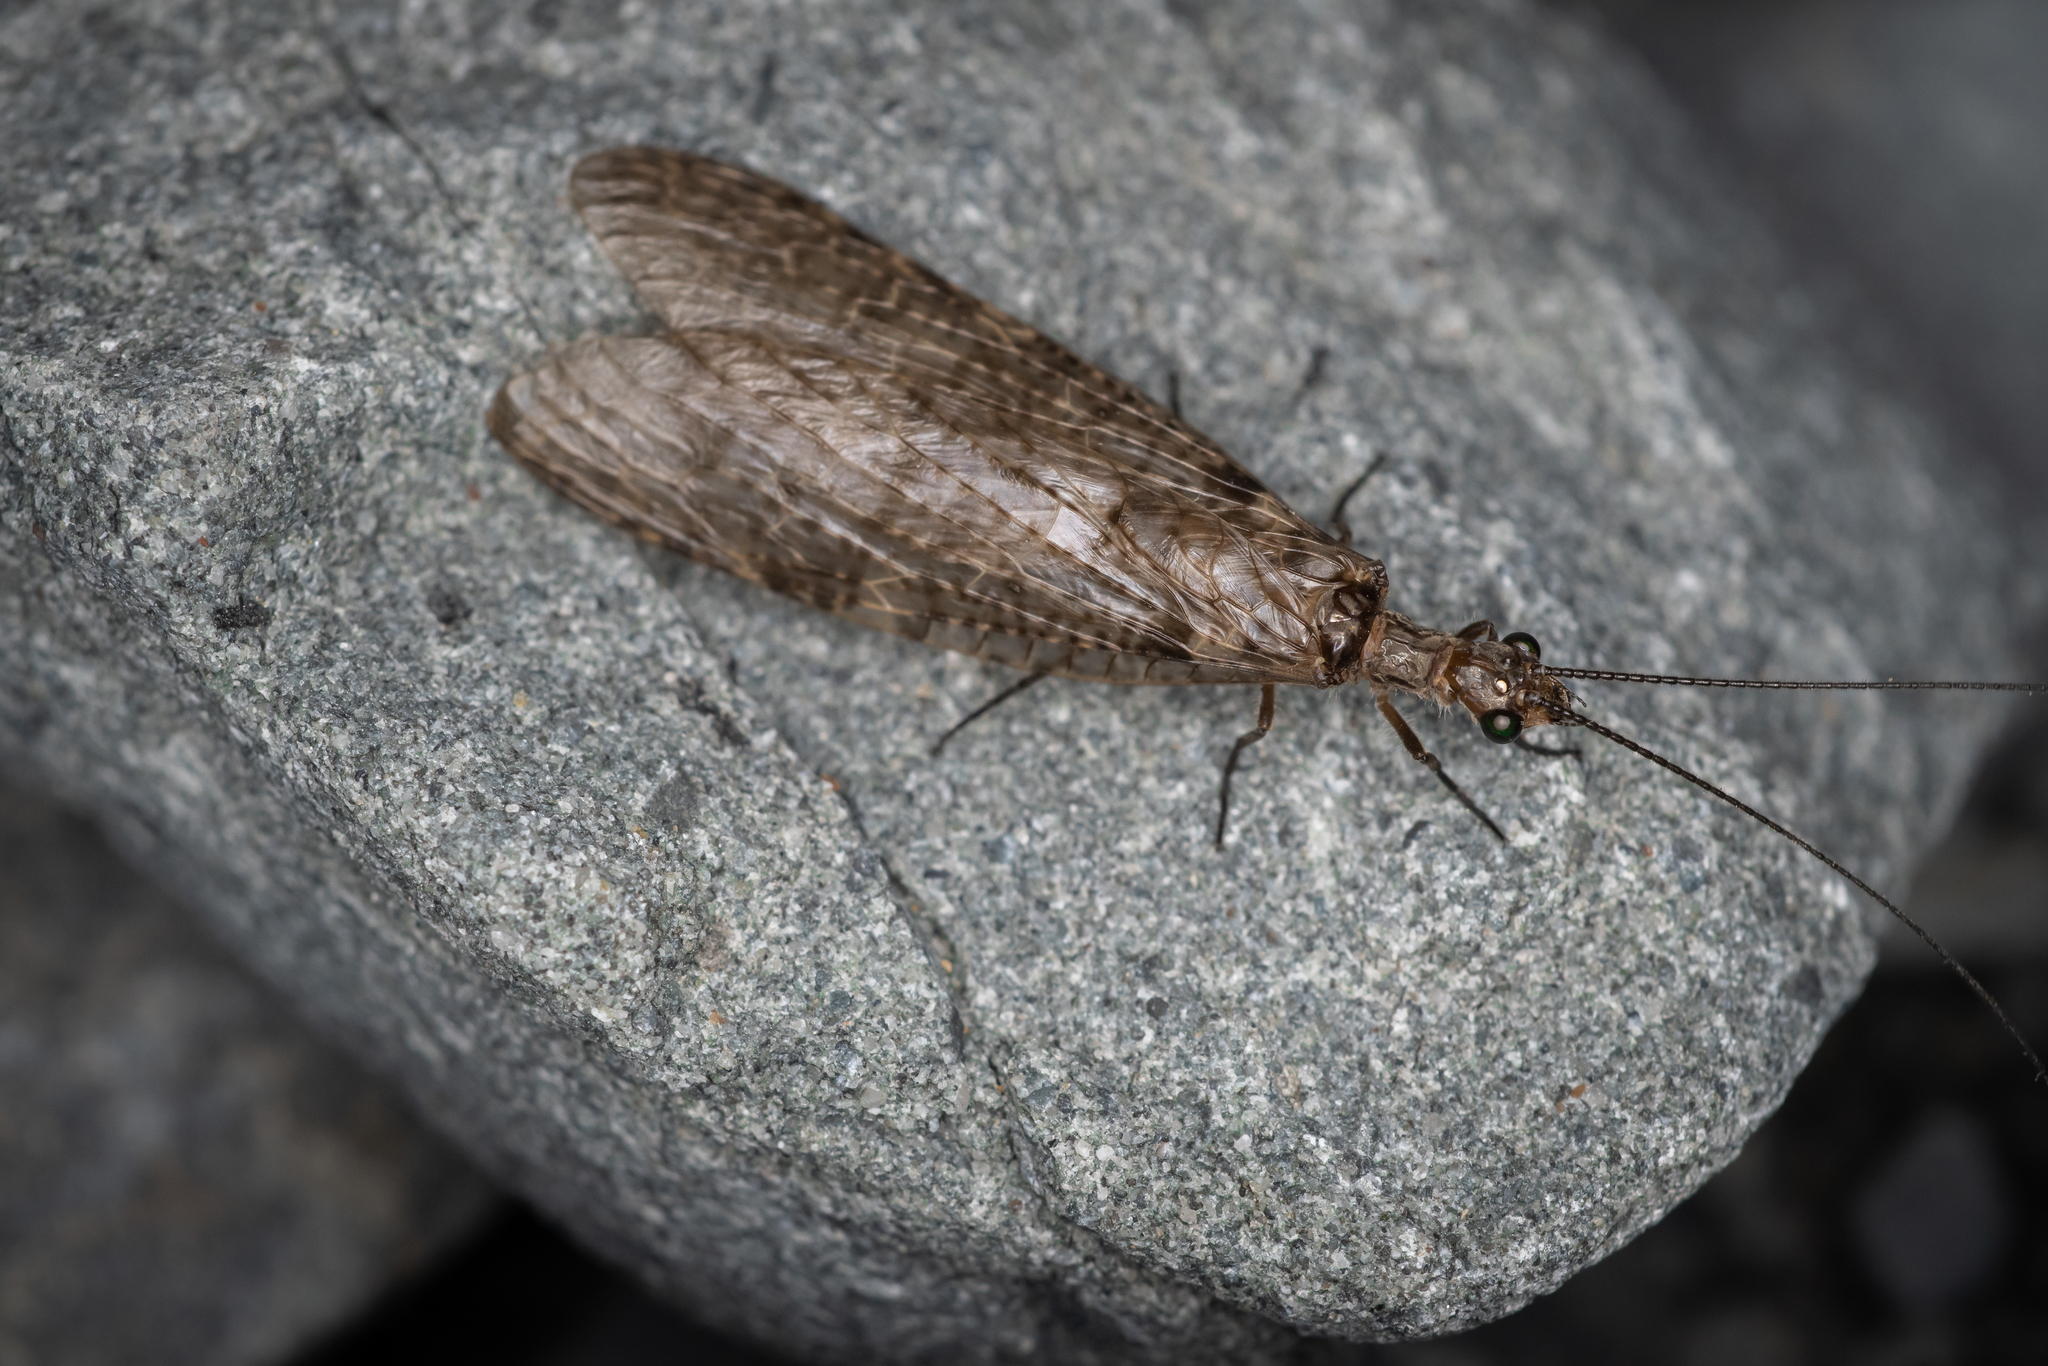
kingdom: Animalia
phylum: Arthropoda
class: Insecta
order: Megaloptera
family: Corydalidae
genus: Archichauliodes
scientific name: Archichauliodes diversus
